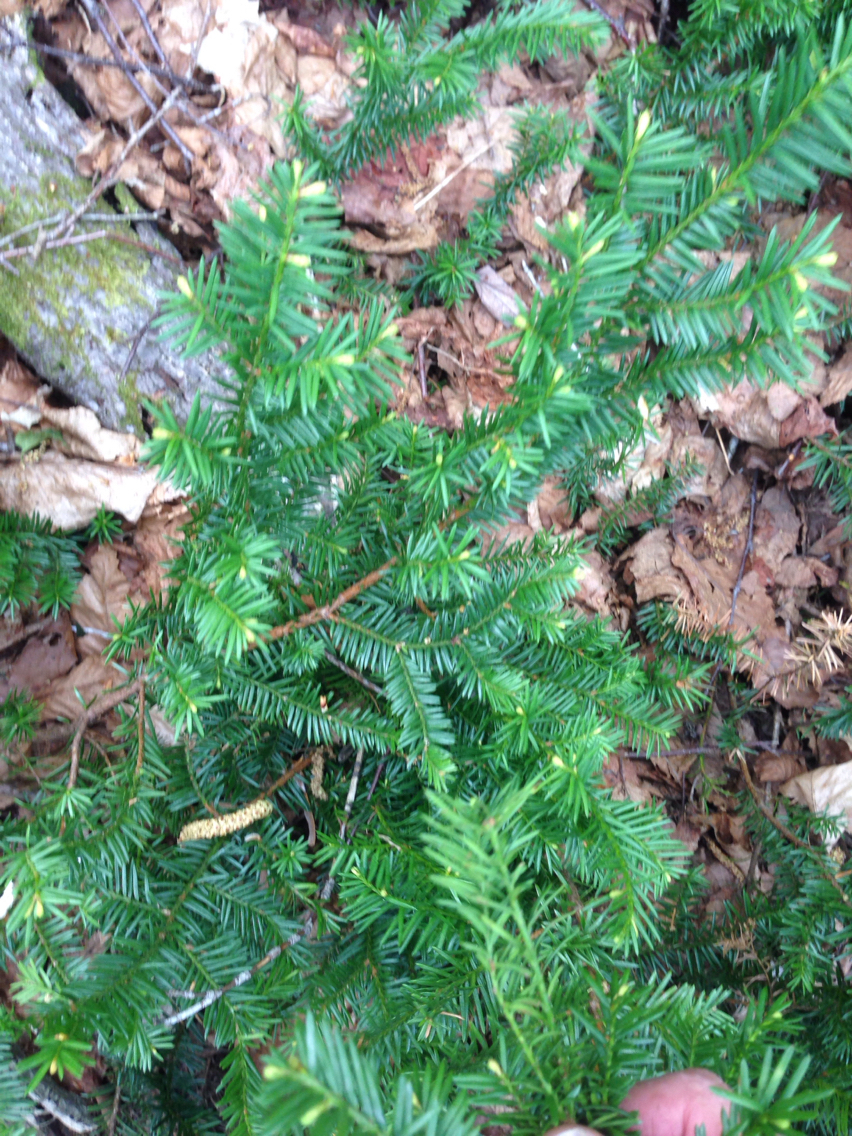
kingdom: Plantae
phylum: Tracheophyta
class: Pinopsida
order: Pinales
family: Taxaceae
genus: Taxus
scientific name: Taxus canadensis
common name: American yew
